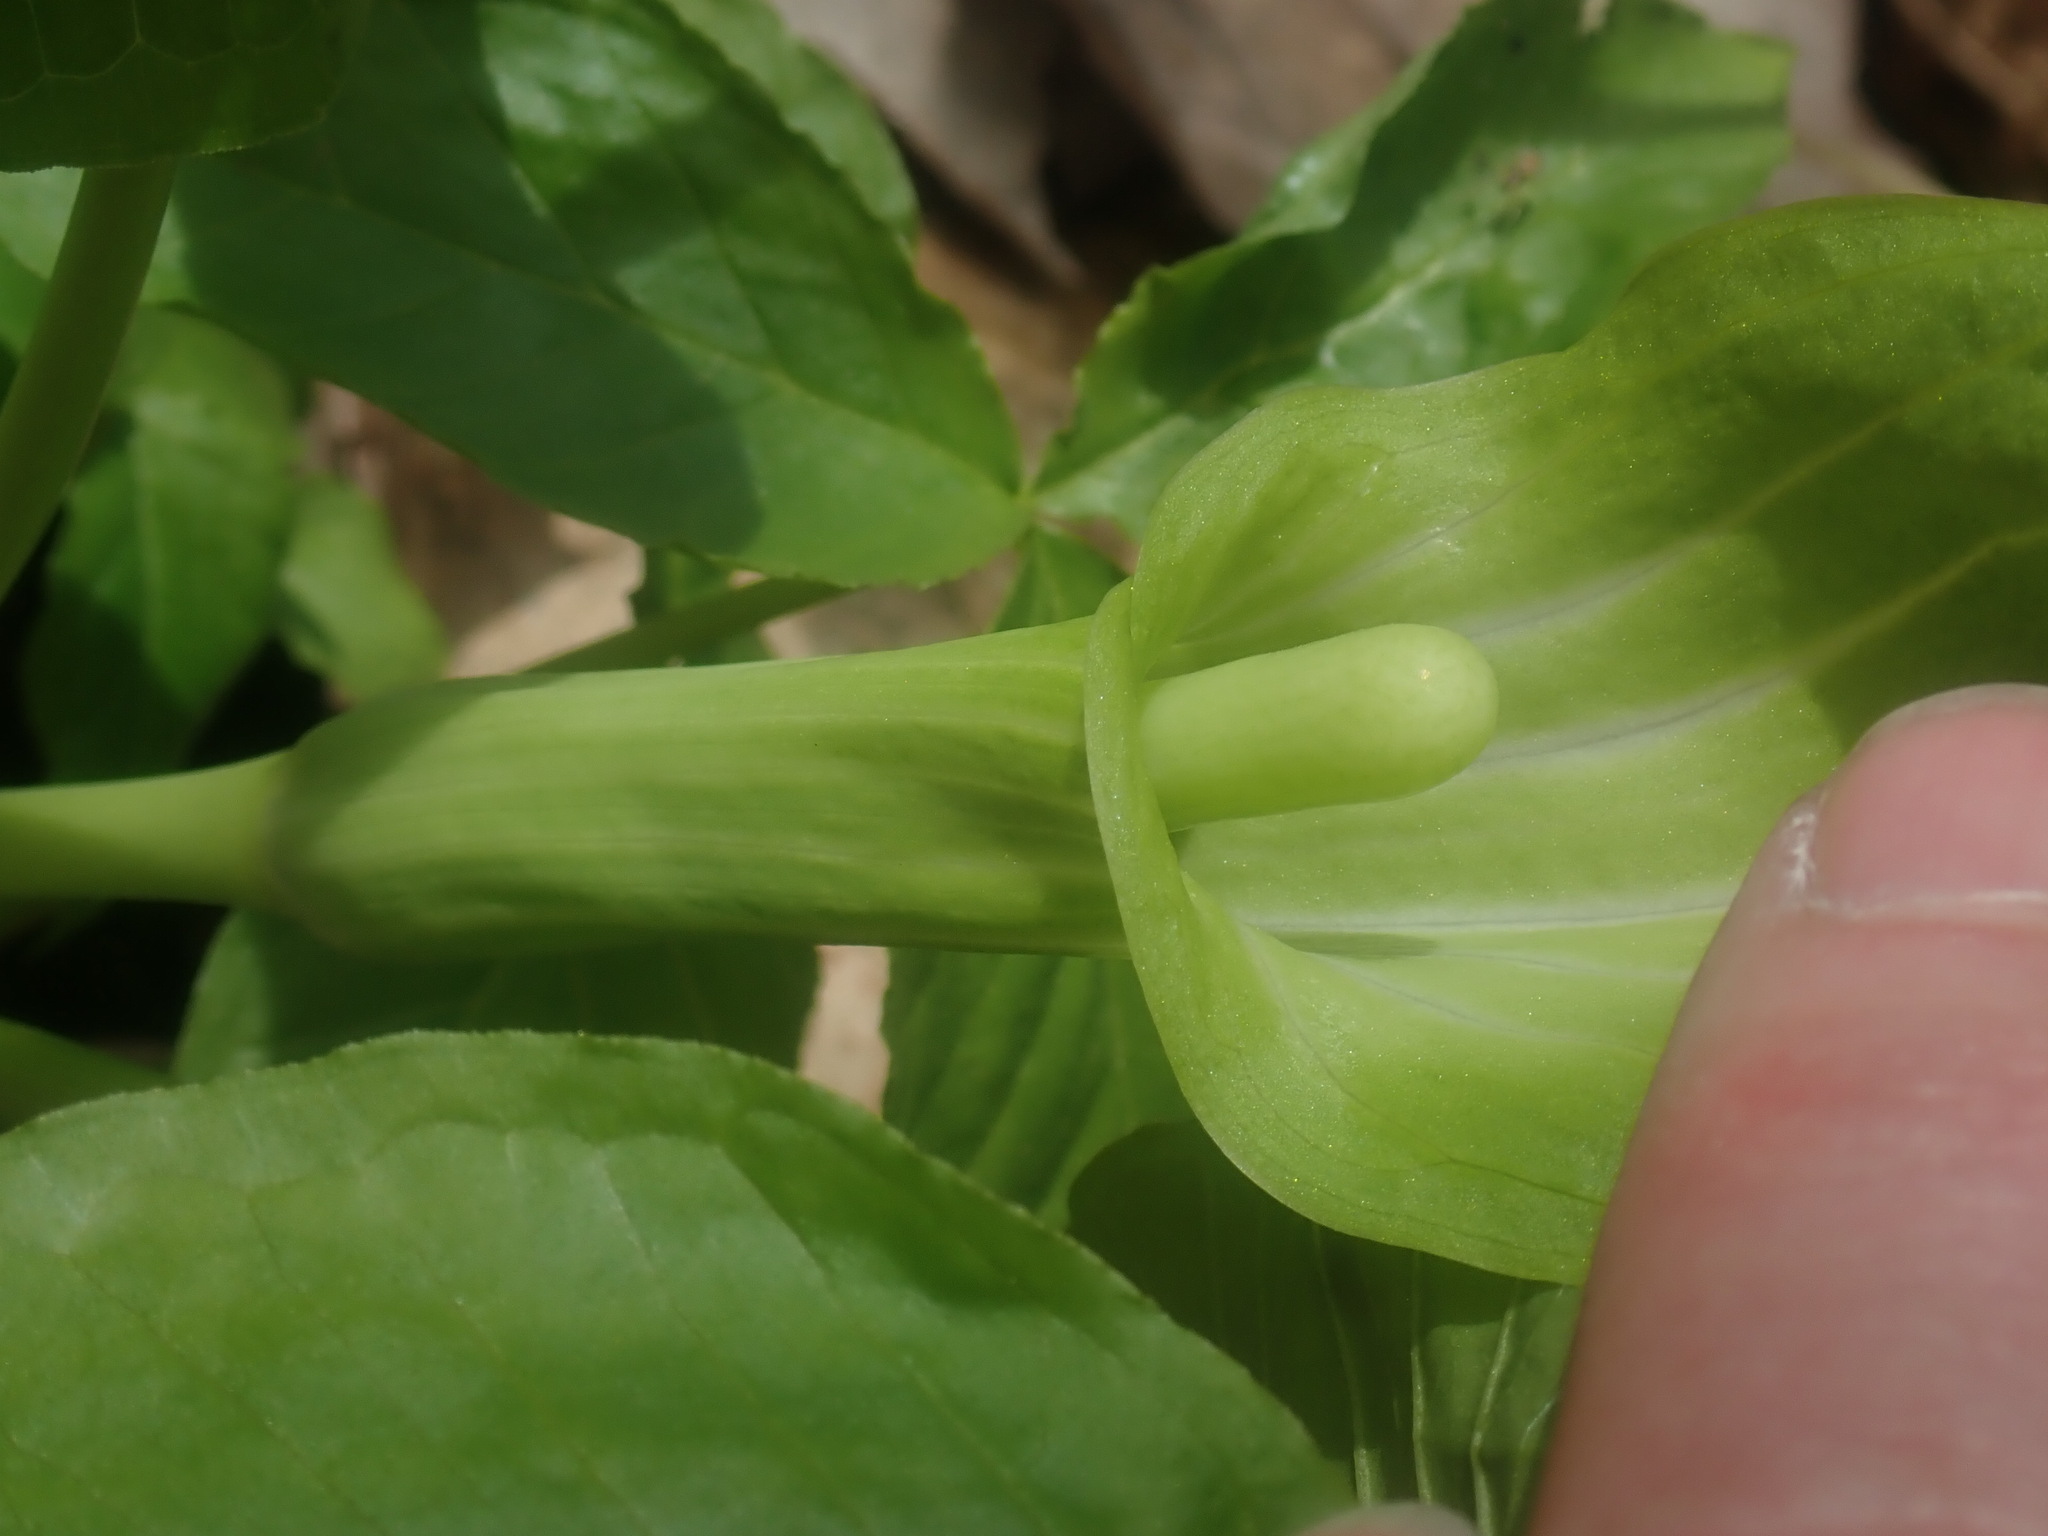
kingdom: Plantae
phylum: Tracheophyta
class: Liliopsida
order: Alismatales
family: Araceae
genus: Arisaema
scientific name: Arisaema triphyllum
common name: Jack-in-the-pulpit
